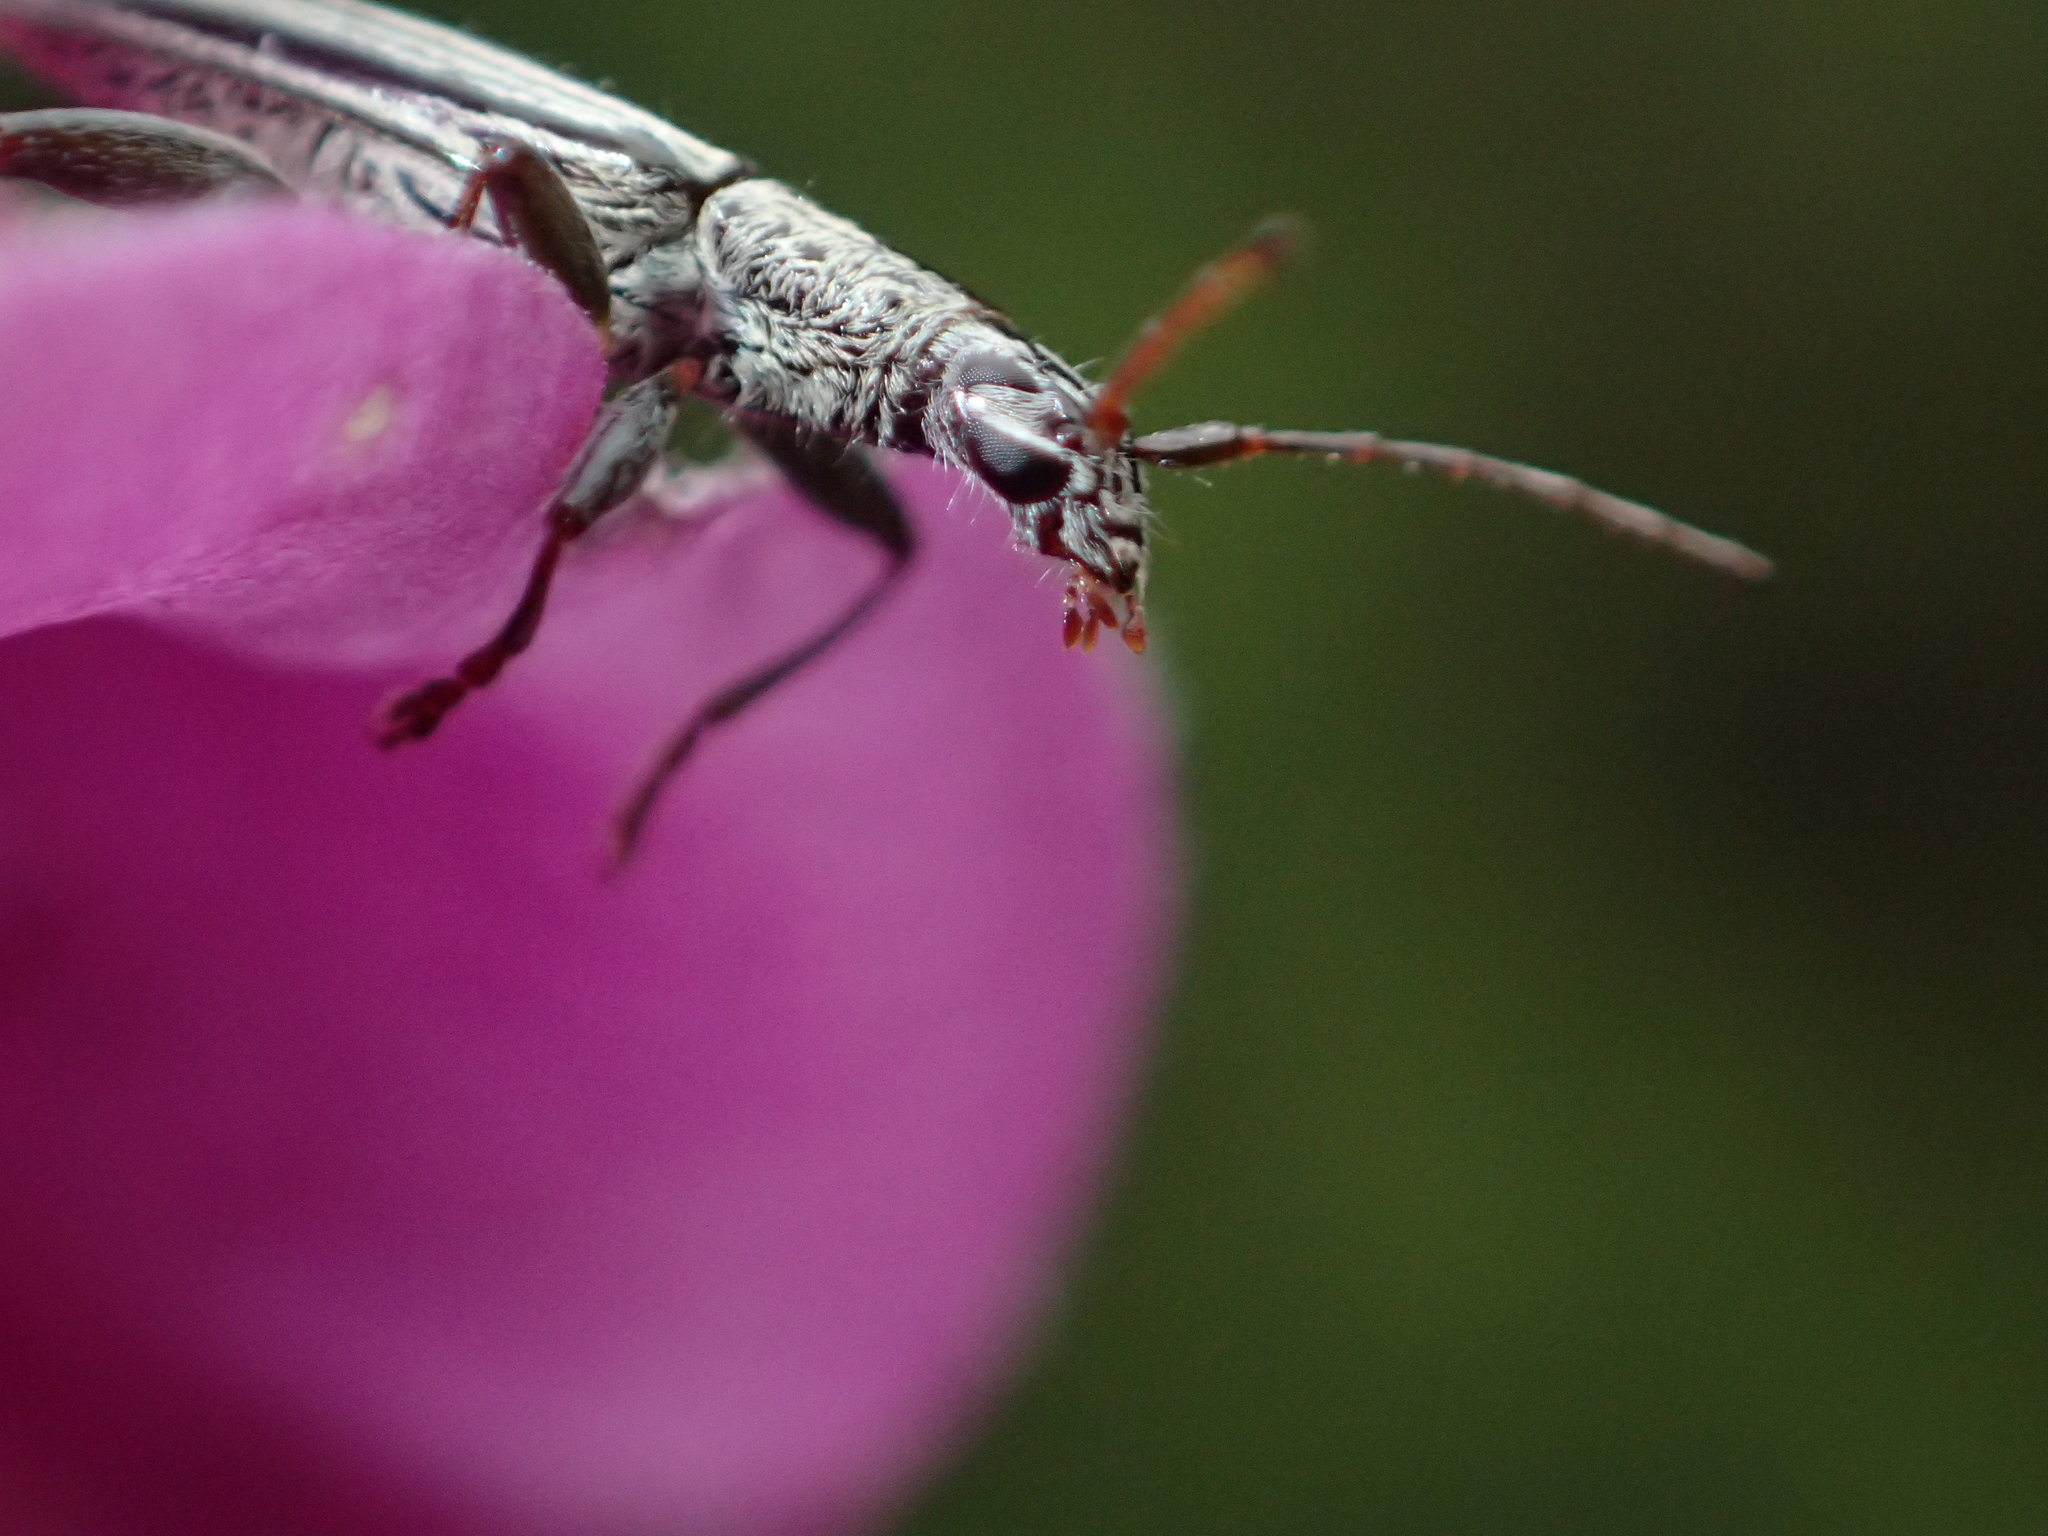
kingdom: Animalia
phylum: Arthropoda
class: Insecta
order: Coleoptera
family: Cerambycidae
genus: Coptomma
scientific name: Coptomma sulcatum
